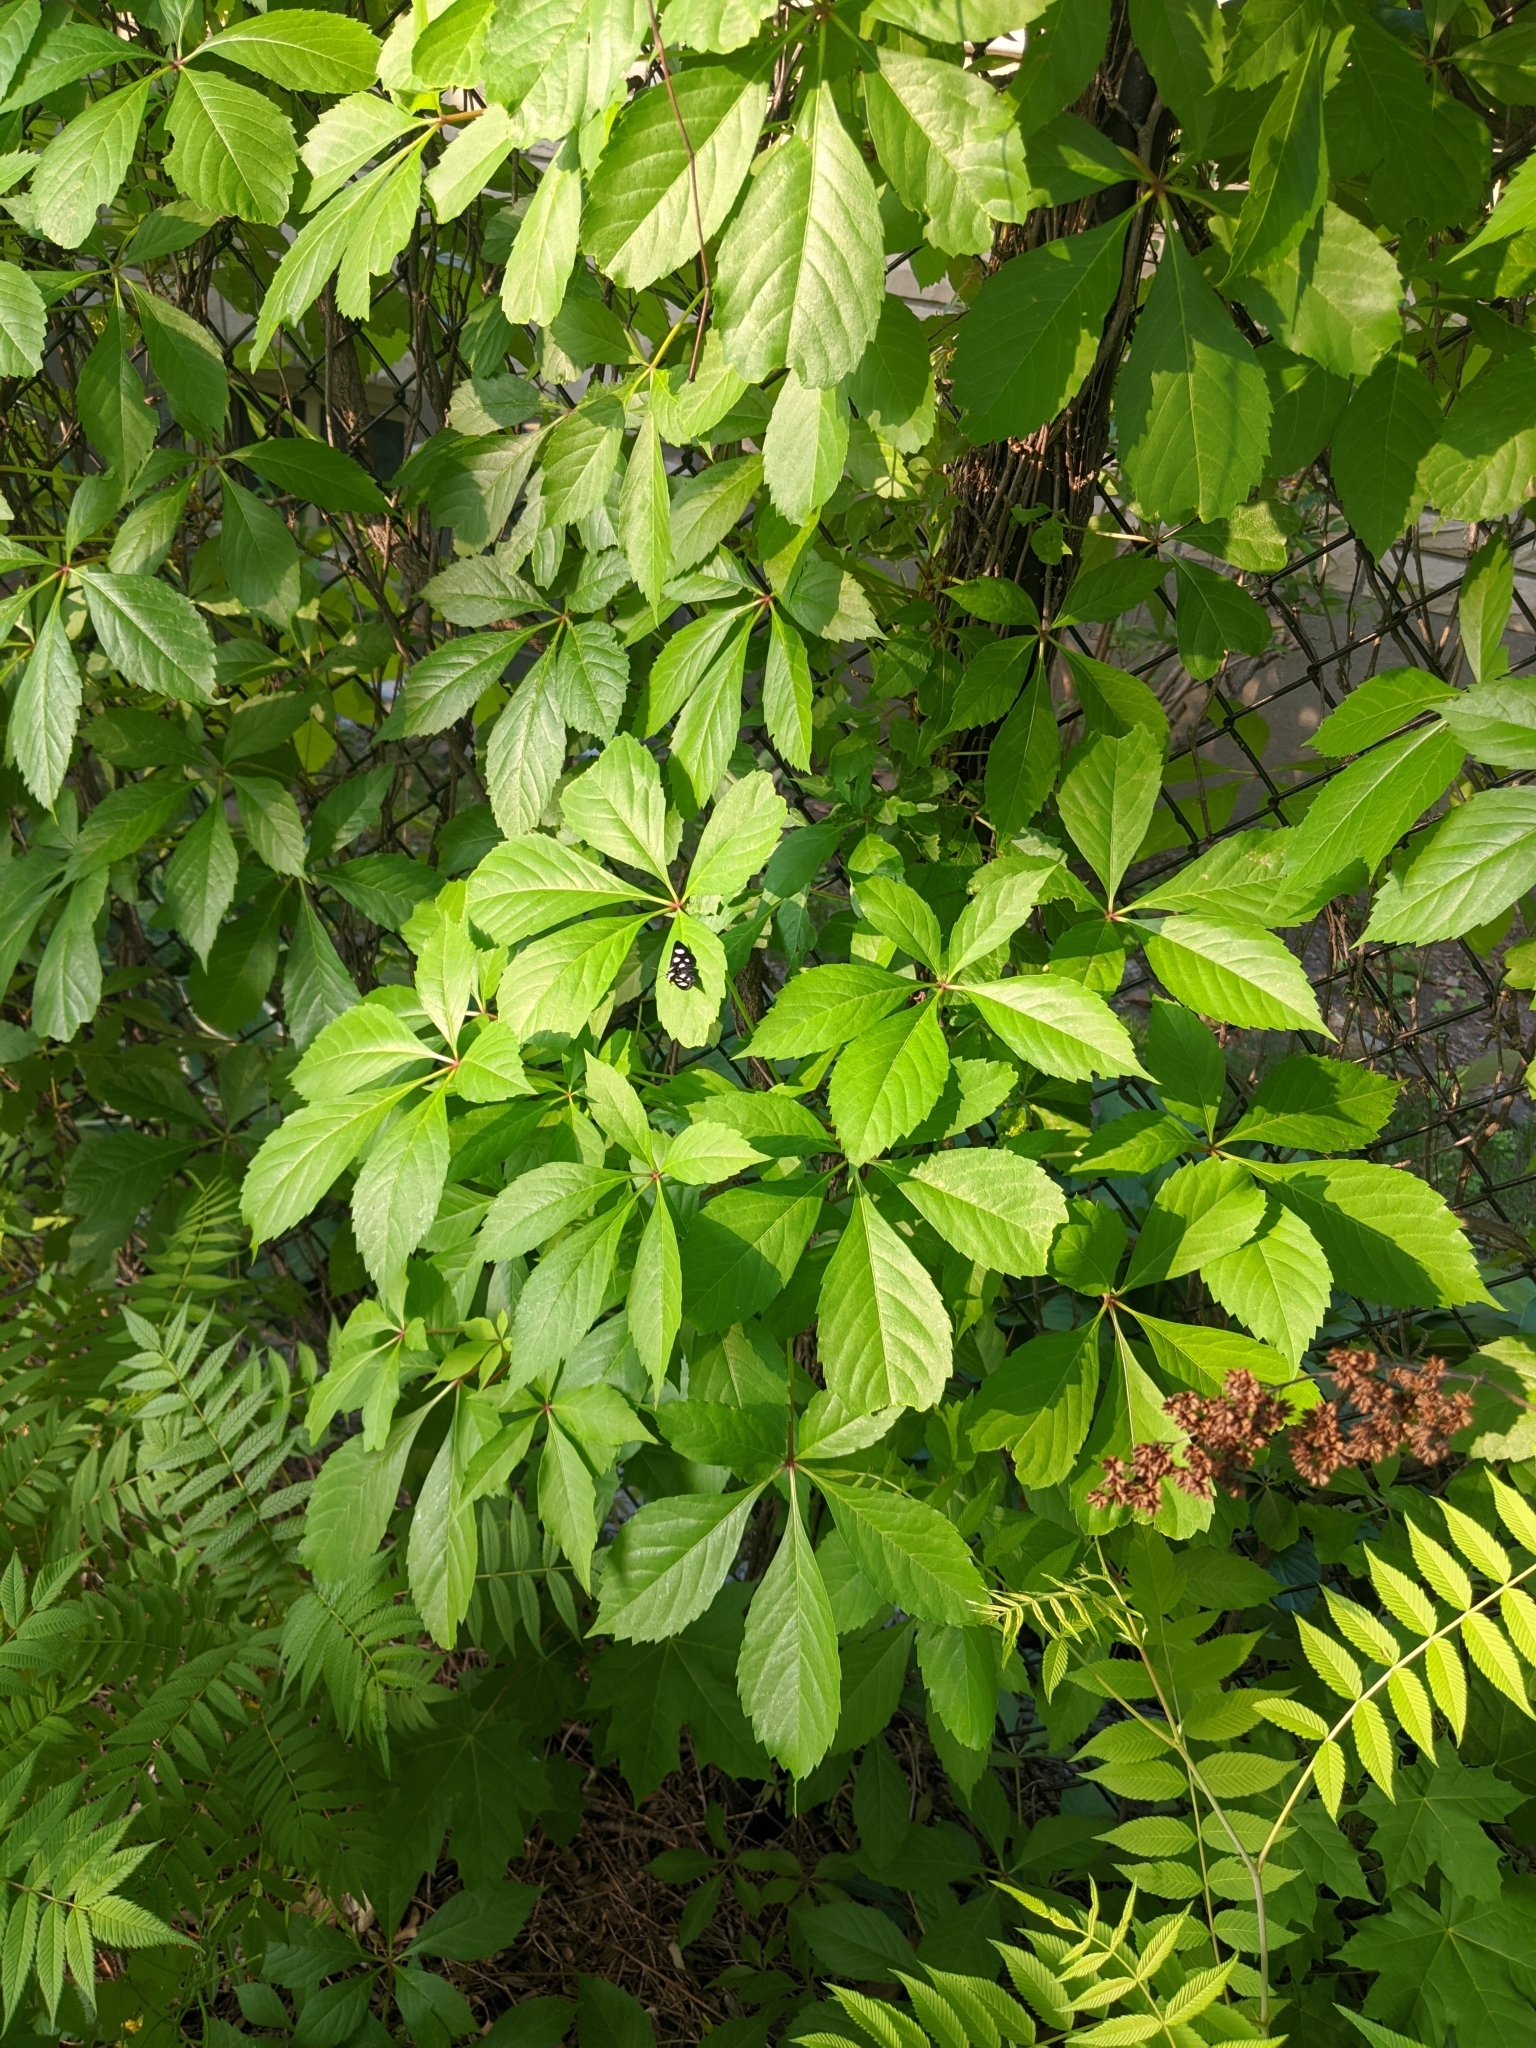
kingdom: Animalia
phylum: Arthropoda
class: Insecta
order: Lepidoptera
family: Noctuidae
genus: Alypia
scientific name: Alypia octomaculata
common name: Eight-spotted forester
